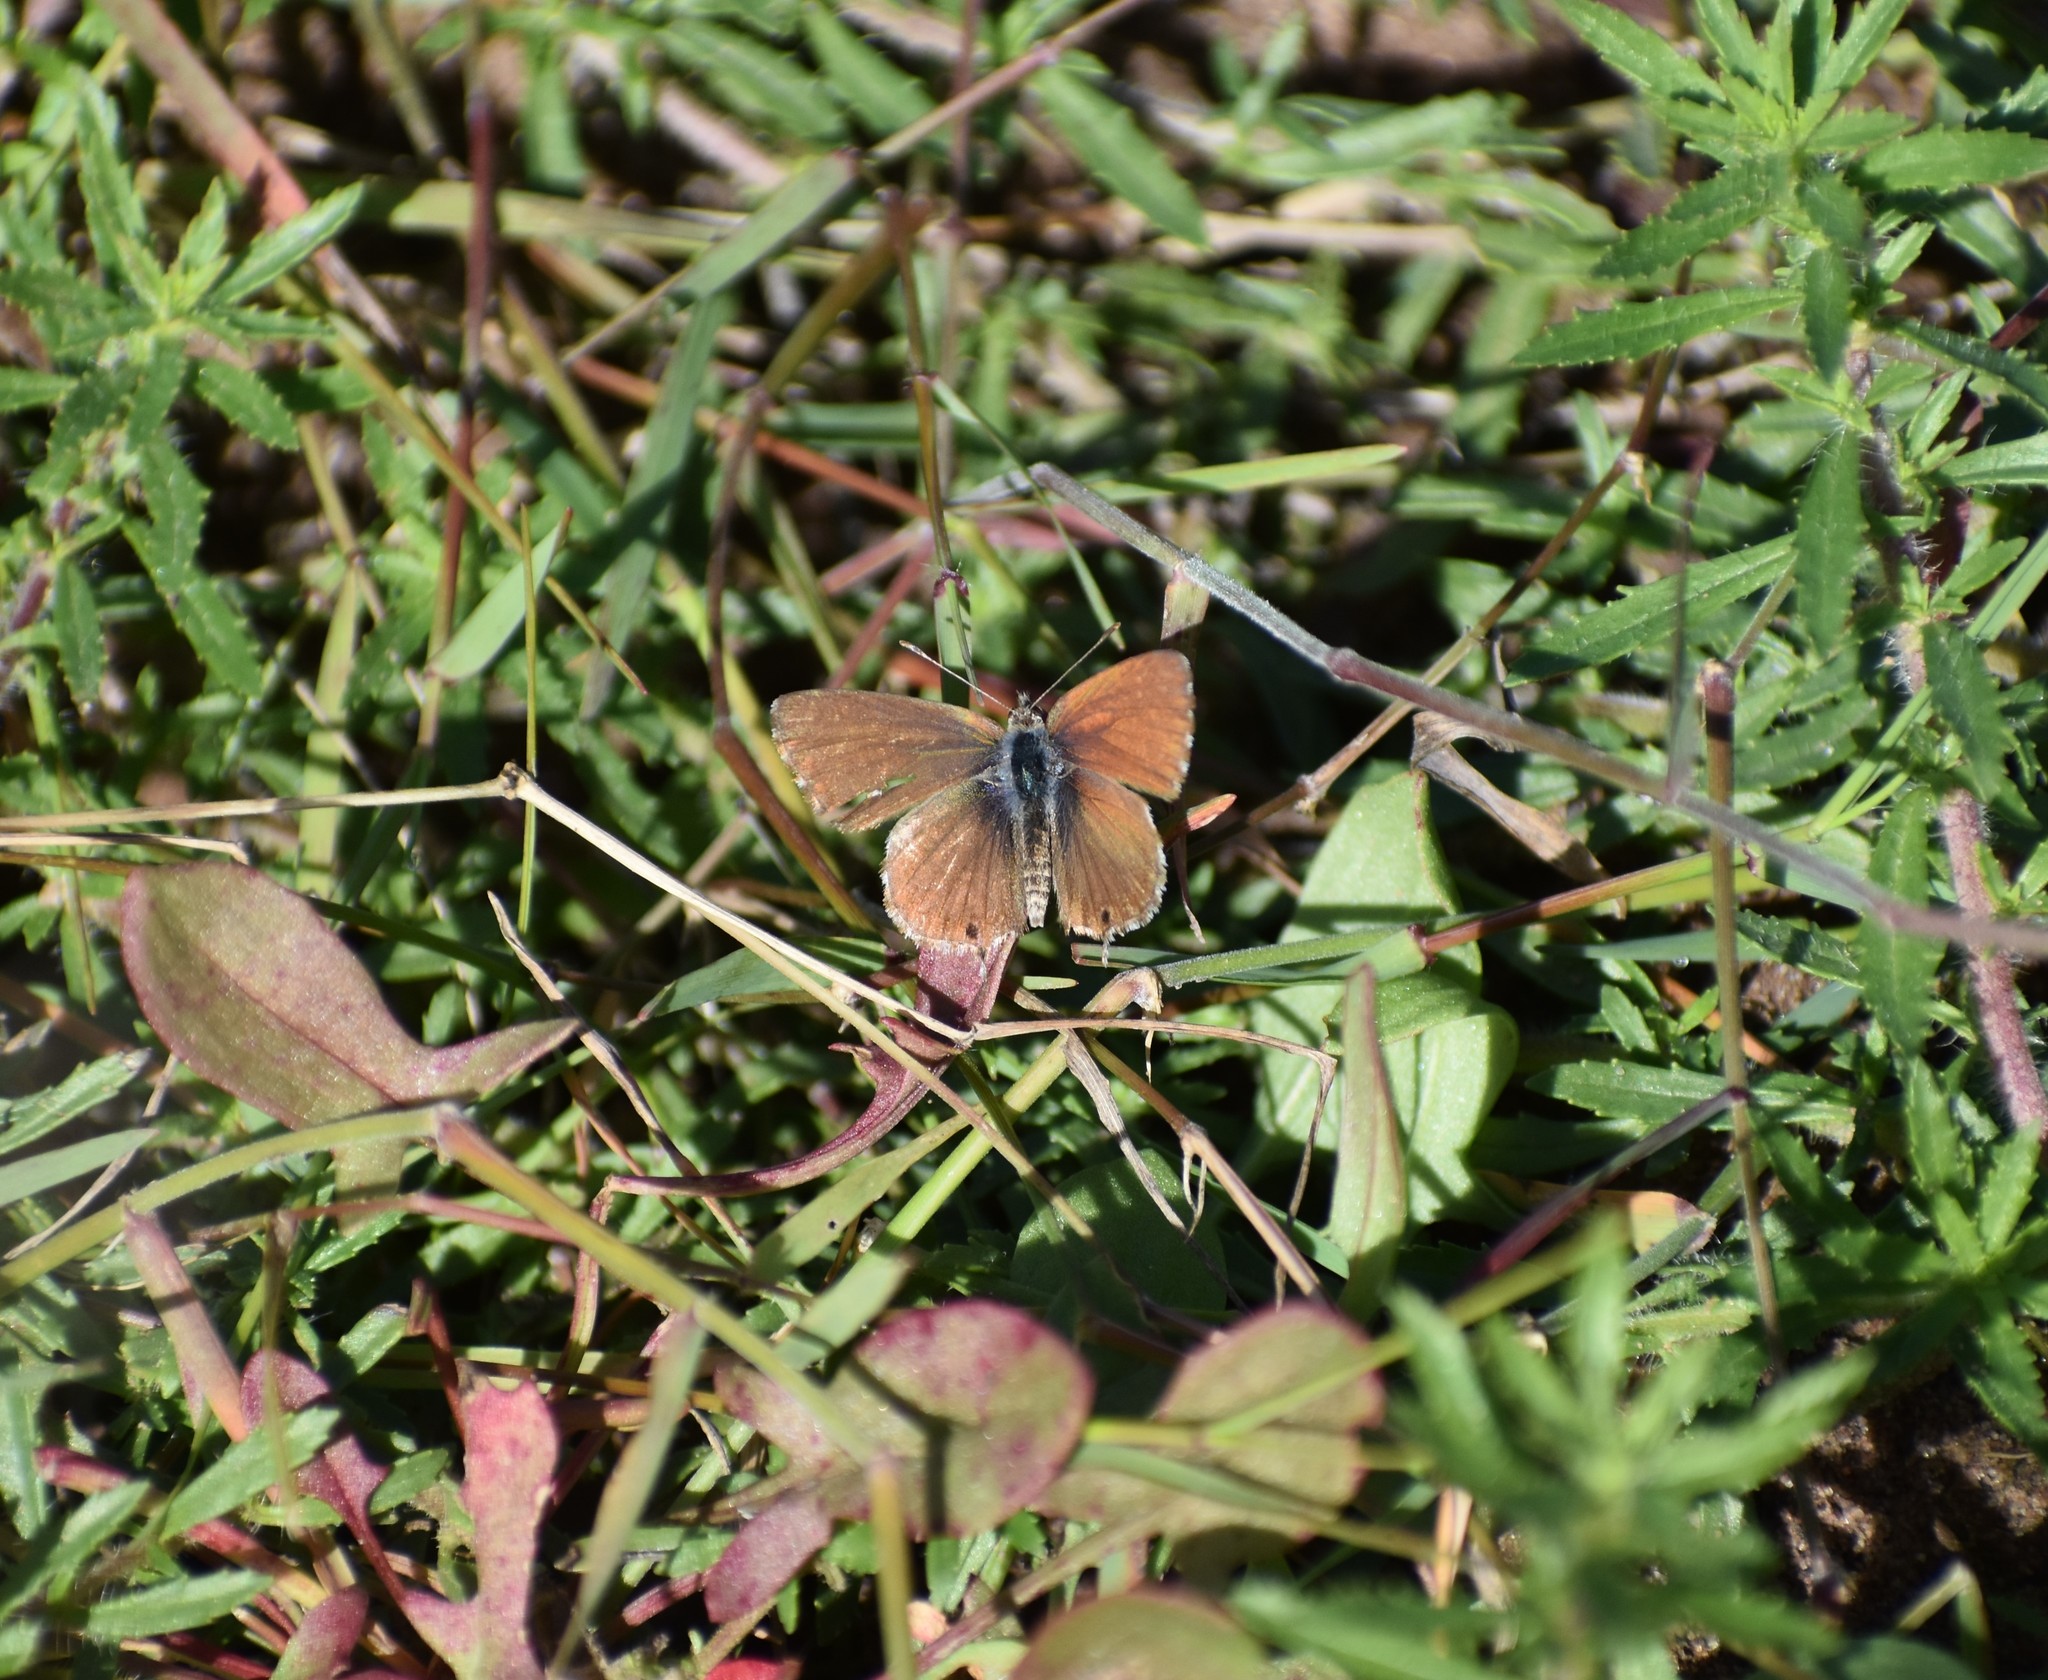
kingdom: Animalia
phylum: Arthropoda
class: Insecta
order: Lepidoptera
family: Lycaenidae
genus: Cacyreus
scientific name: Cacyreus fracta
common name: Water bronze
